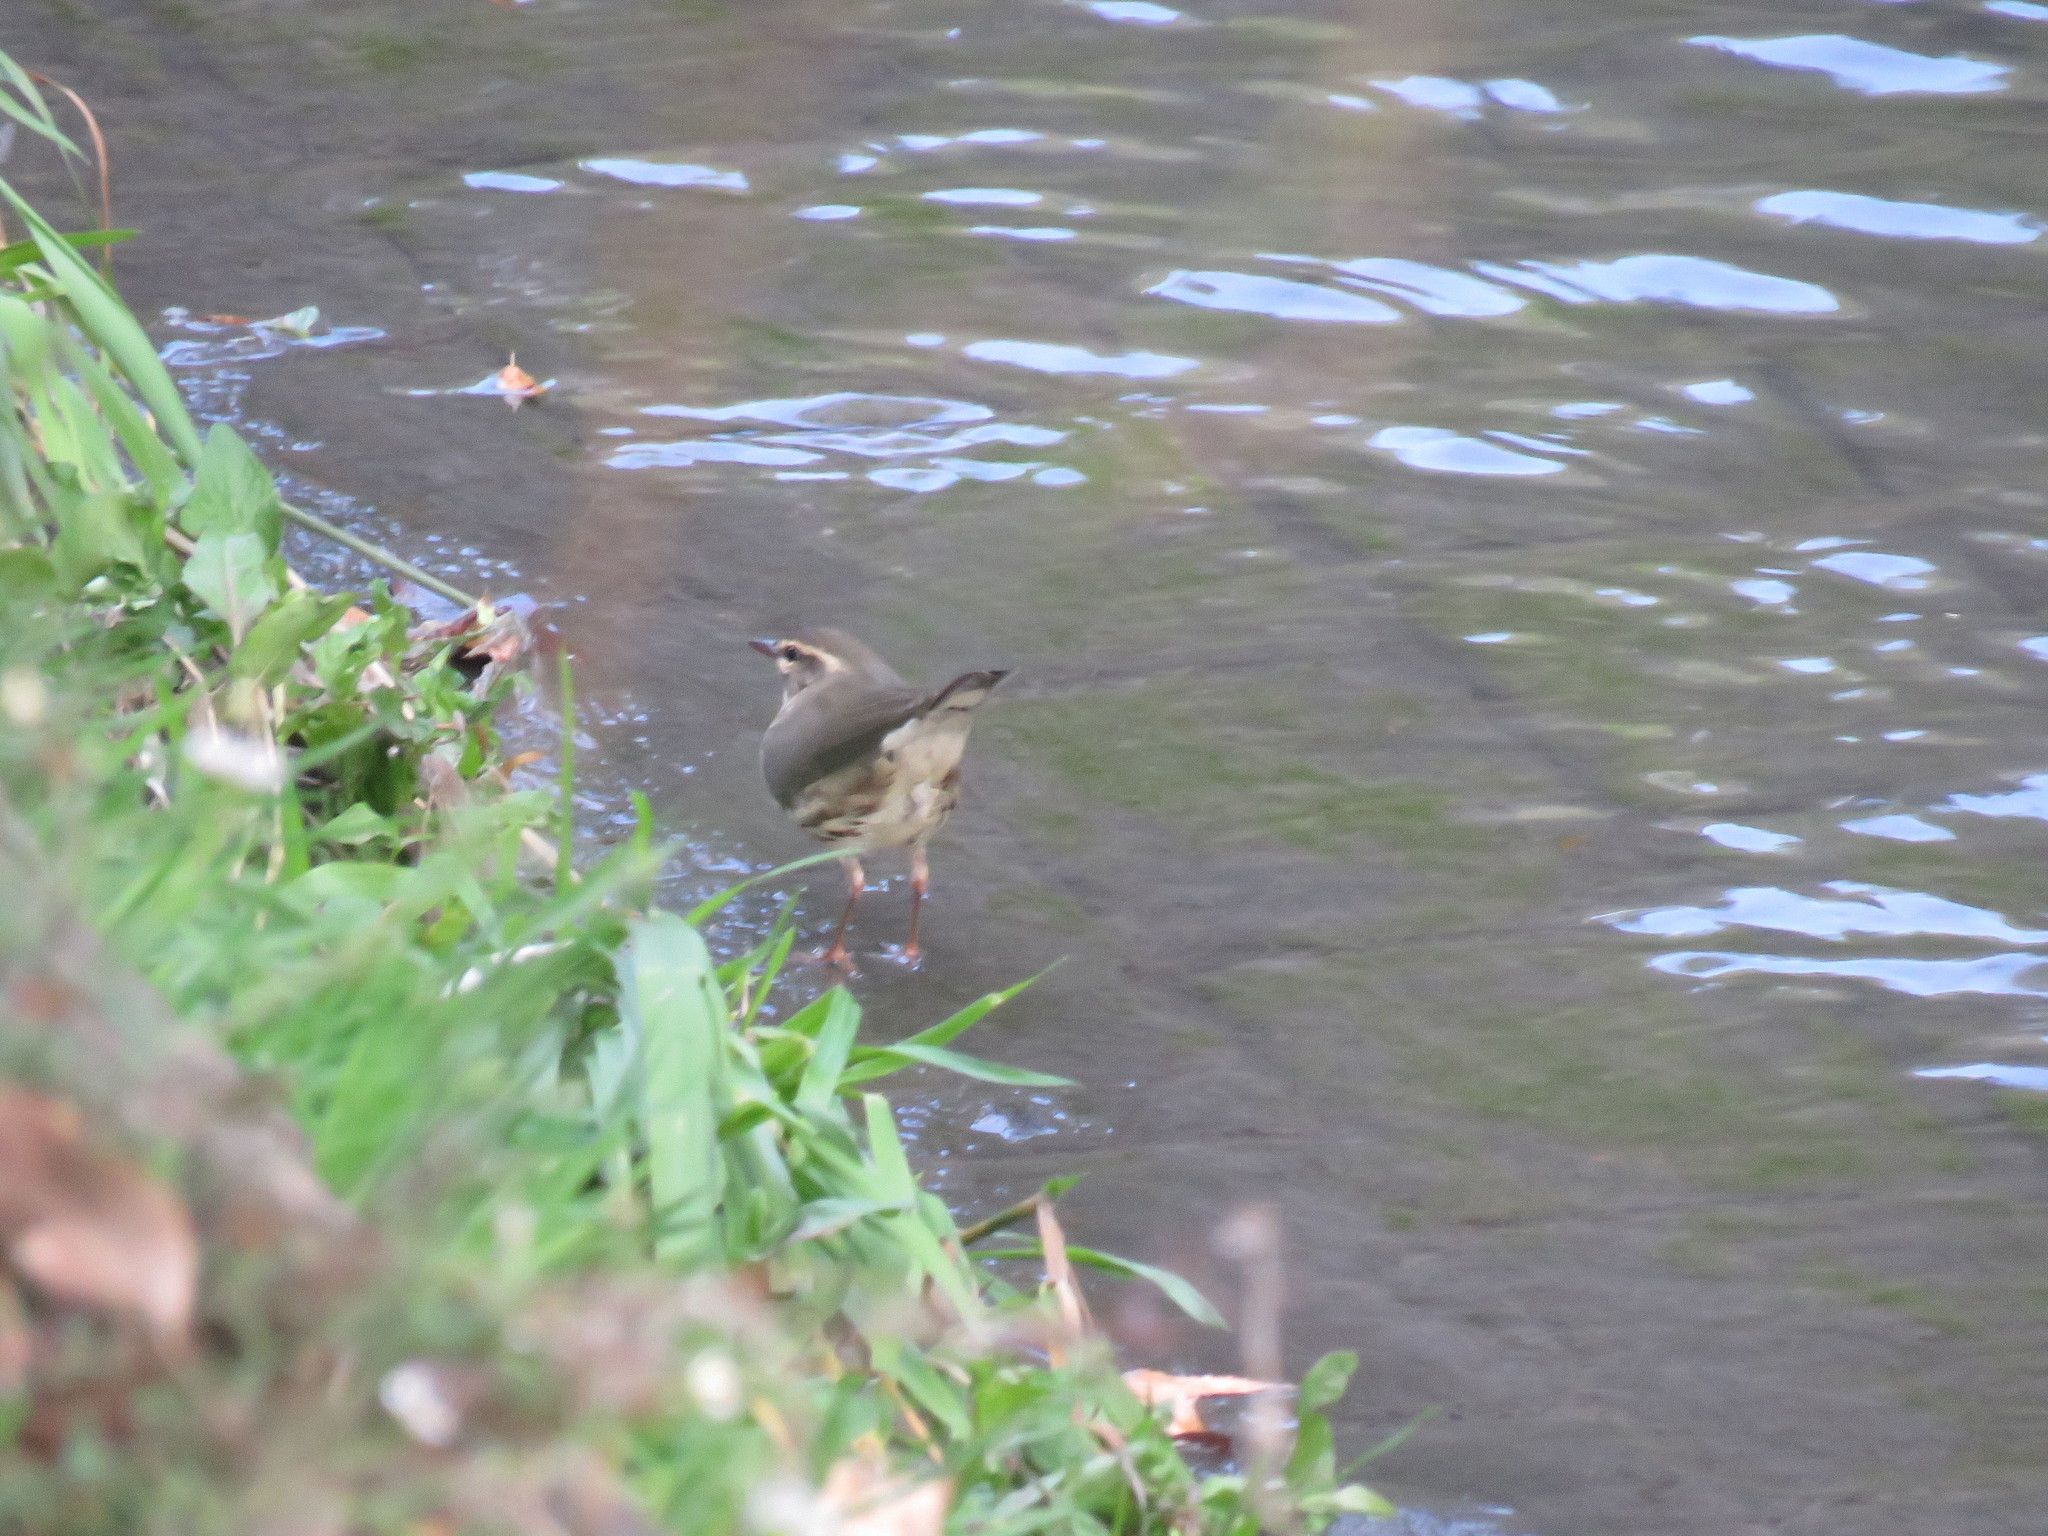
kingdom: Animalia
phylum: Chordata
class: Aves
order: Passeriformes
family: Parulidae
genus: Parkesia
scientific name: Parkesia noveboracensis
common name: Northern waterthrush
